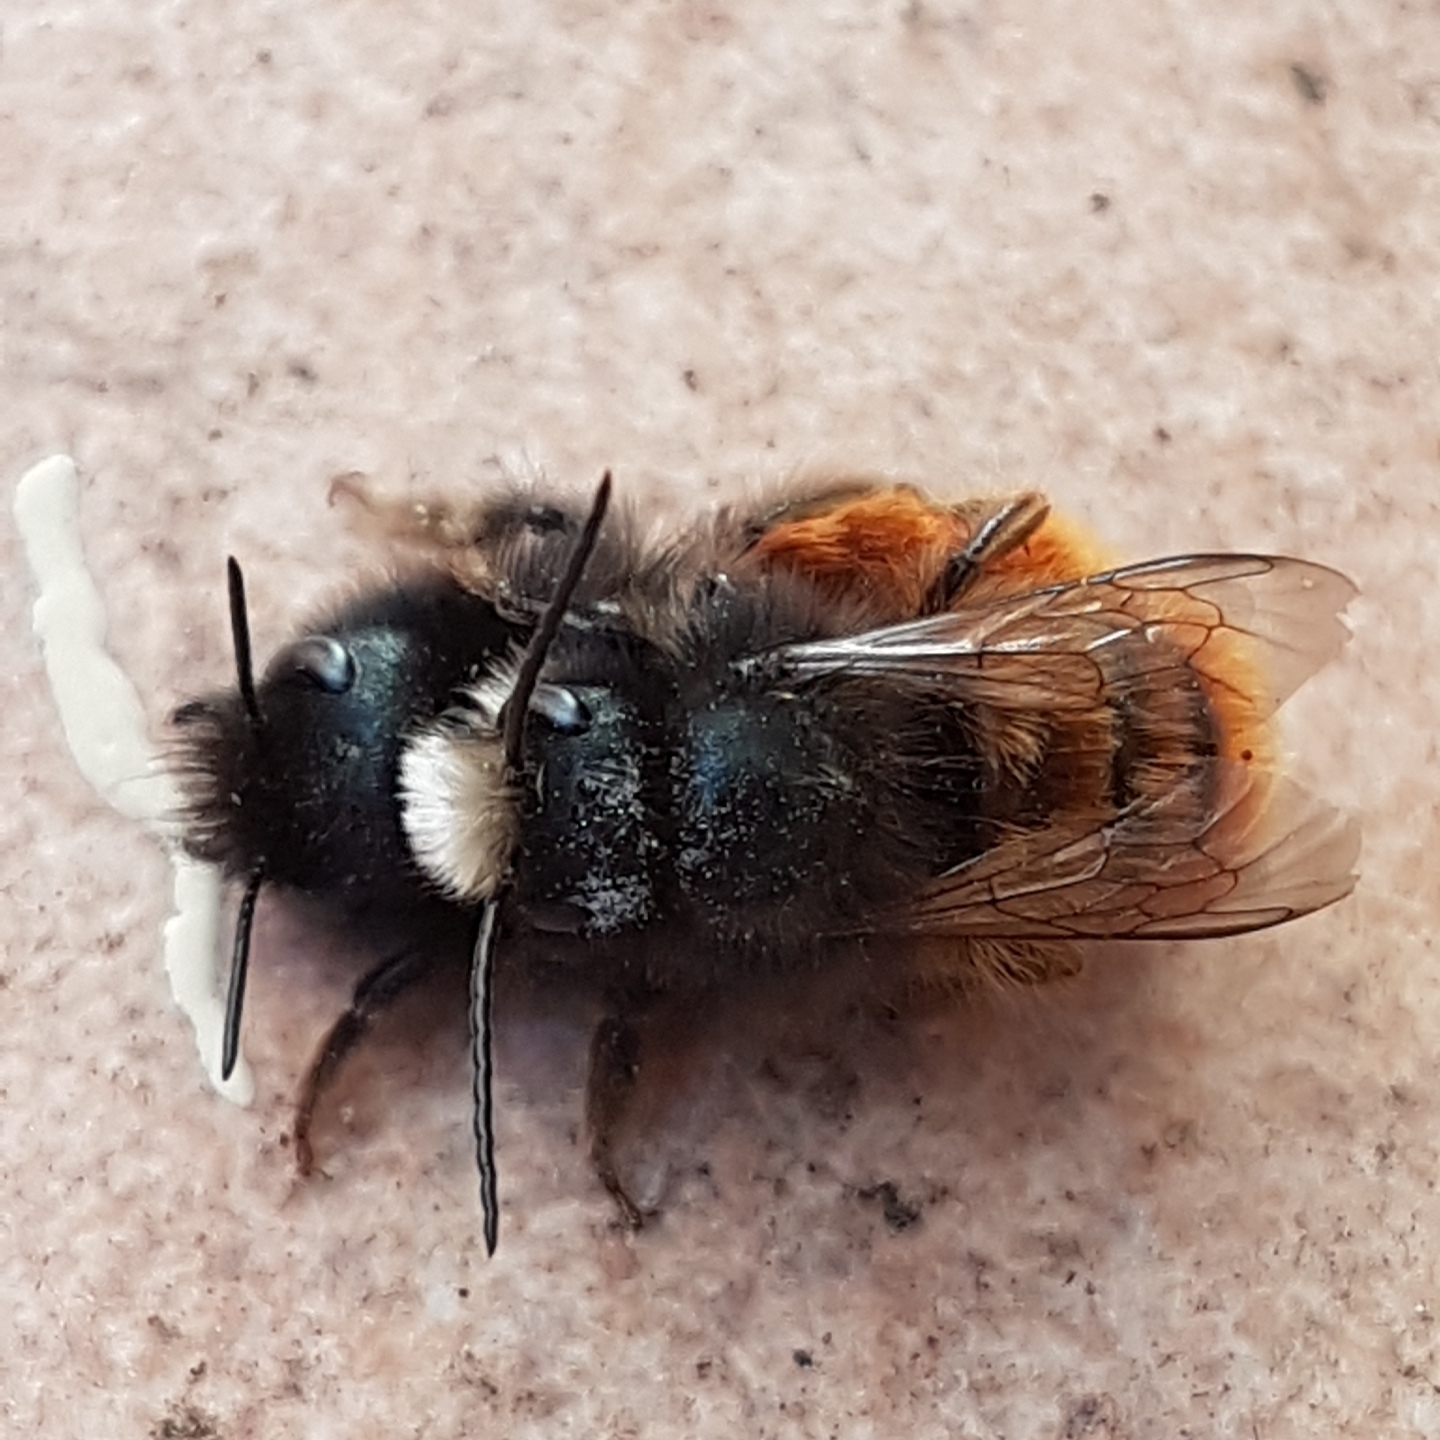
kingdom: Animalia
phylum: Arthropoda
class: Insecta
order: Hymenoptera
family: Megachilidae
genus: Osmia
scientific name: Osmia cornuta
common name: Mason bee
